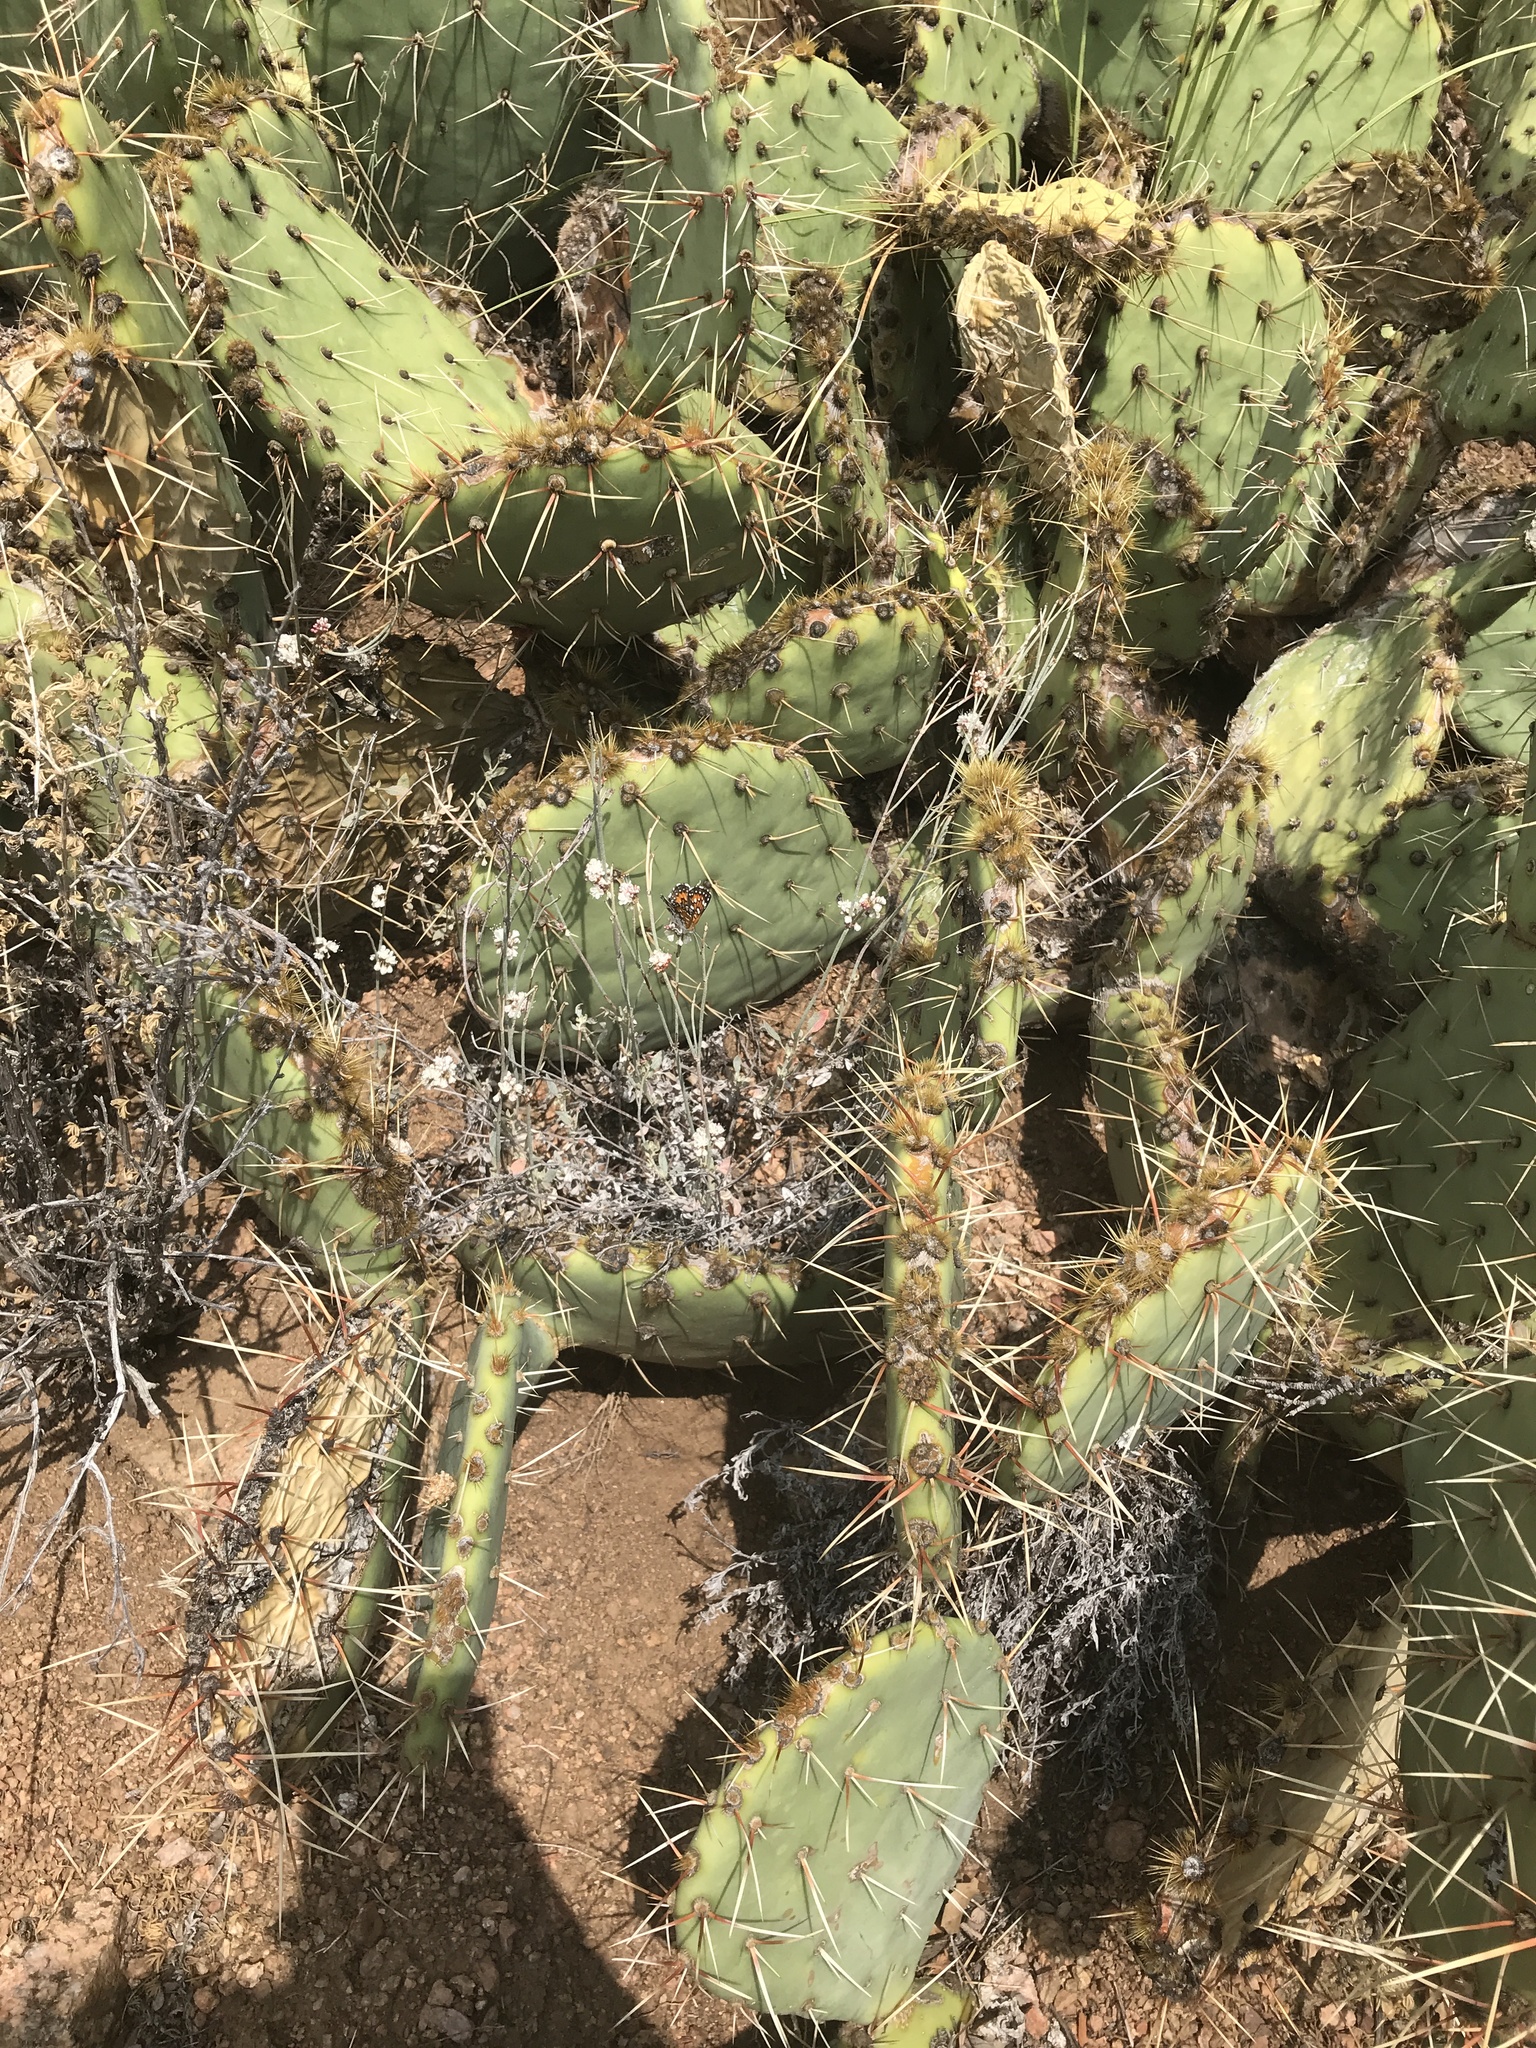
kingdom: Animalia
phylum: Arthropoda
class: Insecta
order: Lepidoptera
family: Riodinidae
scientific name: Riodinidae
